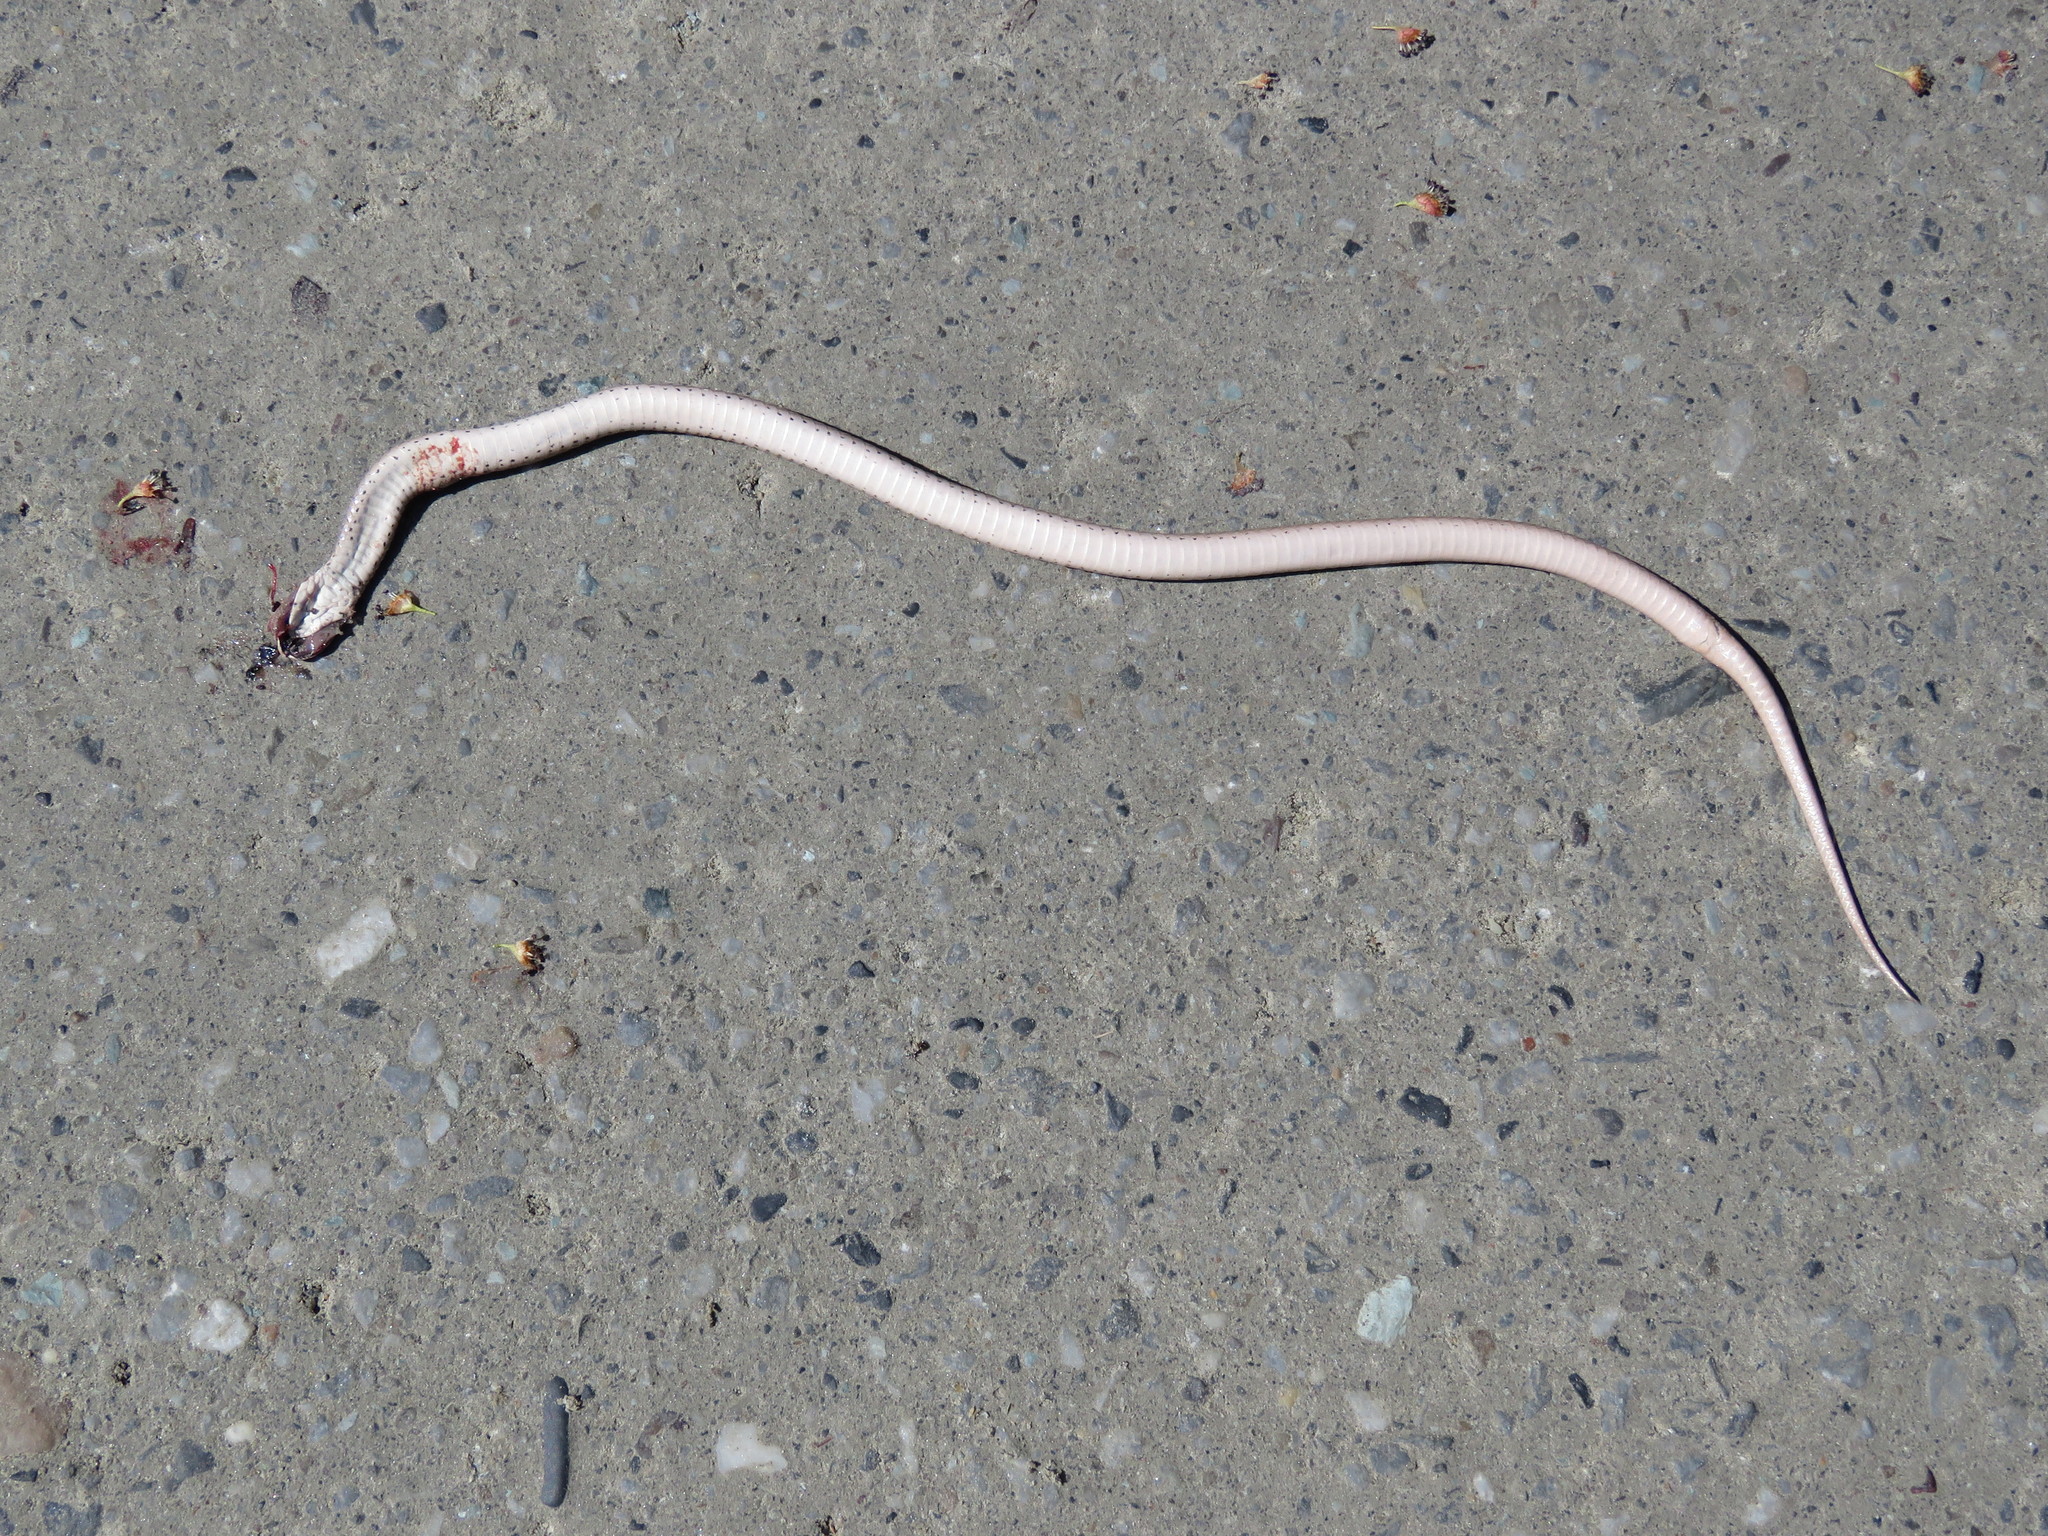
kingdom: Animalia
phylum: Chordata
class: Squamata
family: Colubridae
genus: Storeria
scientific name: Storeria dekayi
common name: (dekay’s) brown snake
